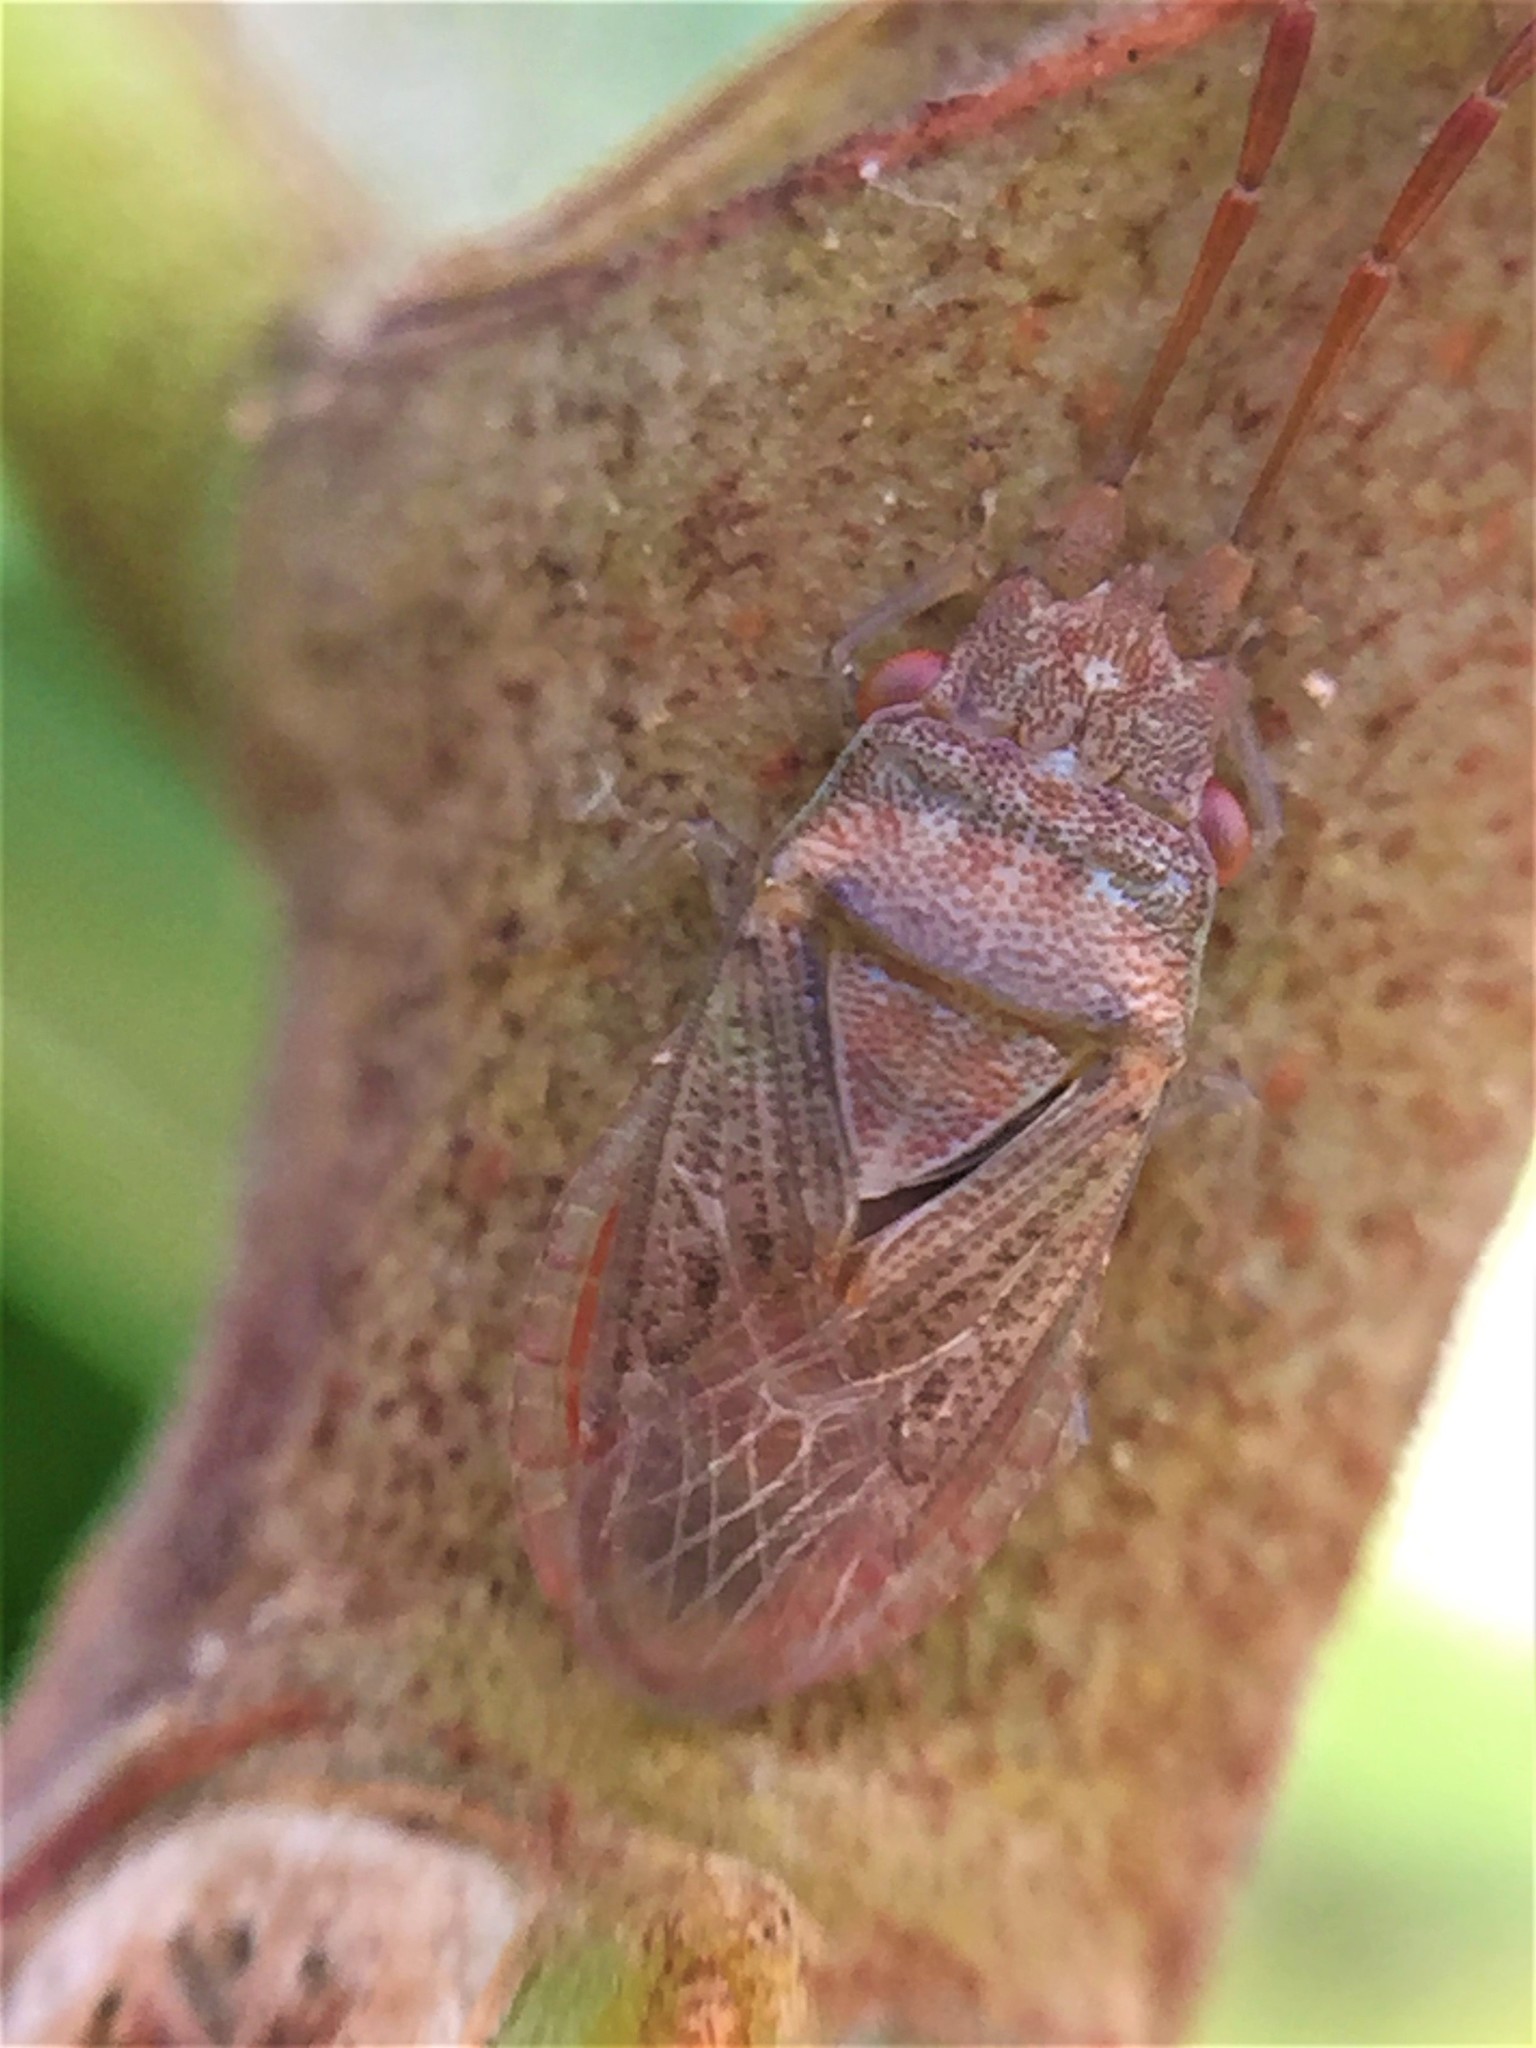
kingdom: Animalia
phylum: Arthropoda
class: Insecta
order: Hemiptera
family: Meschiidae
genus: Meschia
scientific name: Meschia barrowensis
